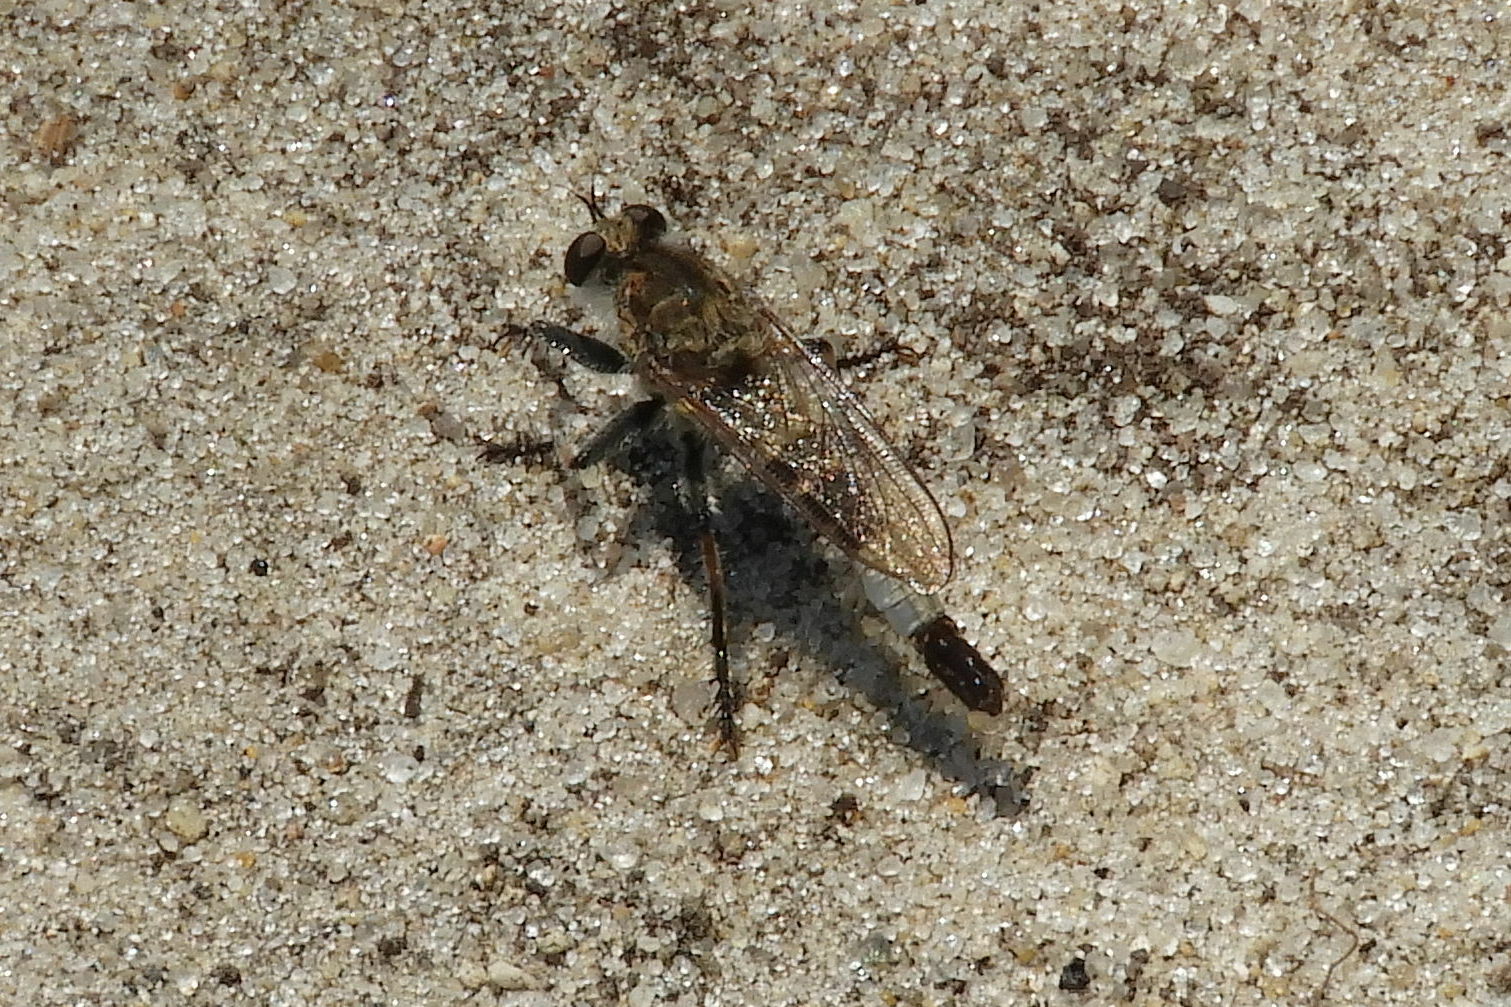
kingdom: Animalia
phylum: Arthropoda
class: Insecta
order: Diptera
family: Asilidae
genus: Efferia
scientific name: Efferia albibarbis
